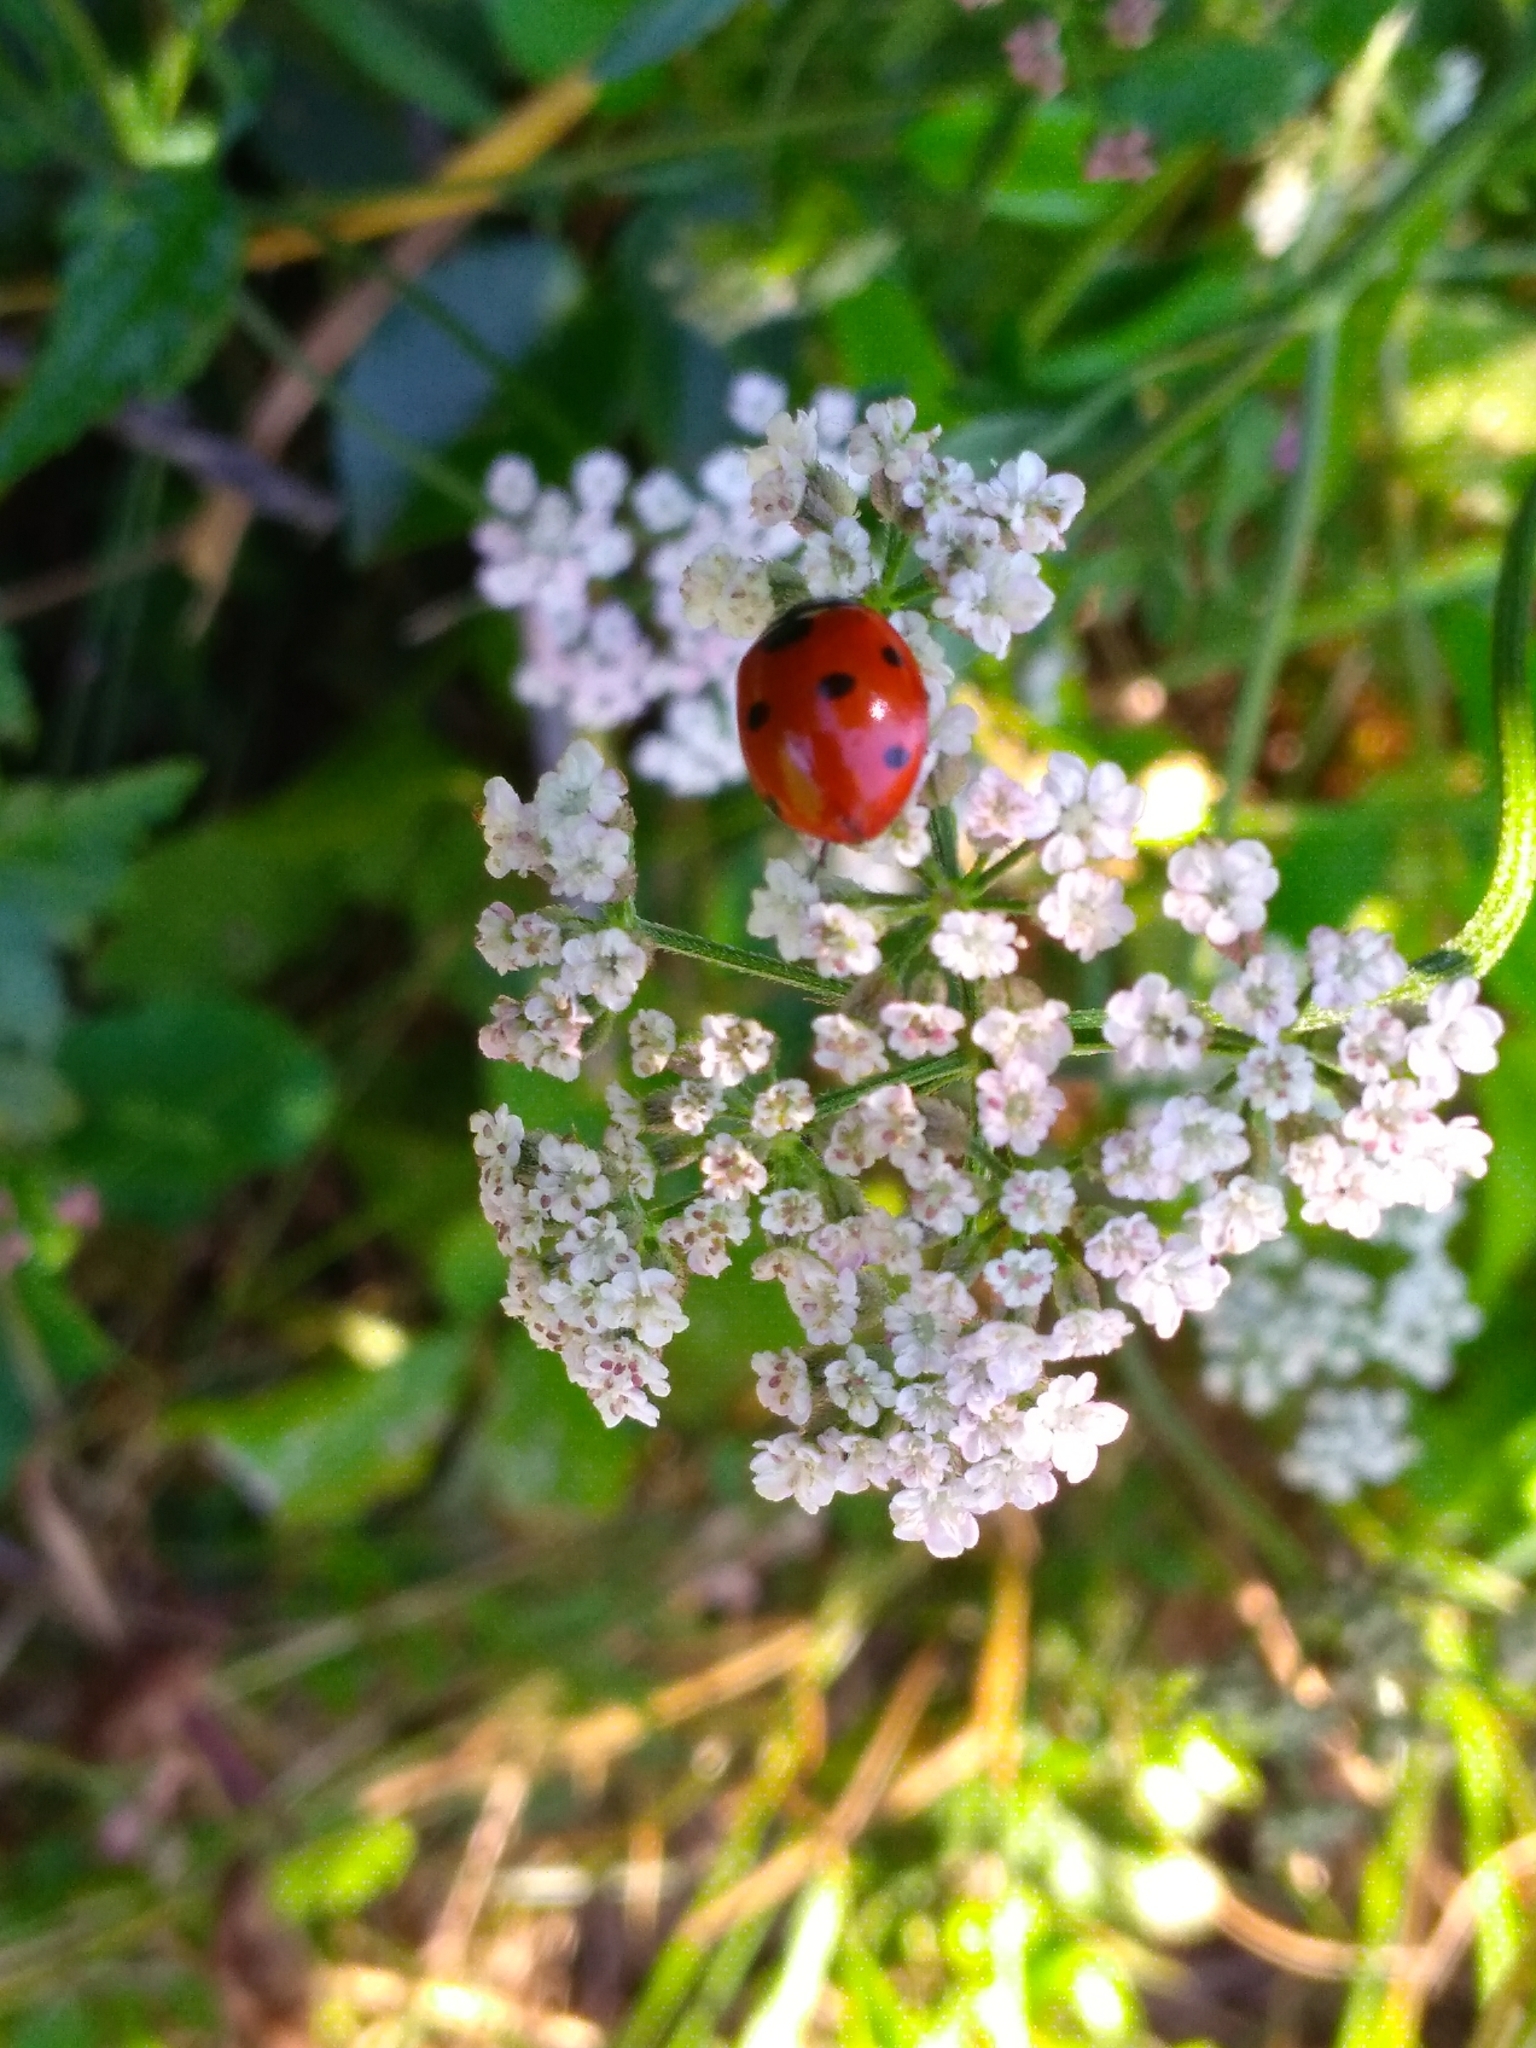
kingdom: Animalia
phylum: Arthropoda
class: Insecta
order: Coleoptera
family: Coccinellidae
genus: Coccinella
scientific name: Coccinella septempunctata
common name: Sevenspotted lady beetle
